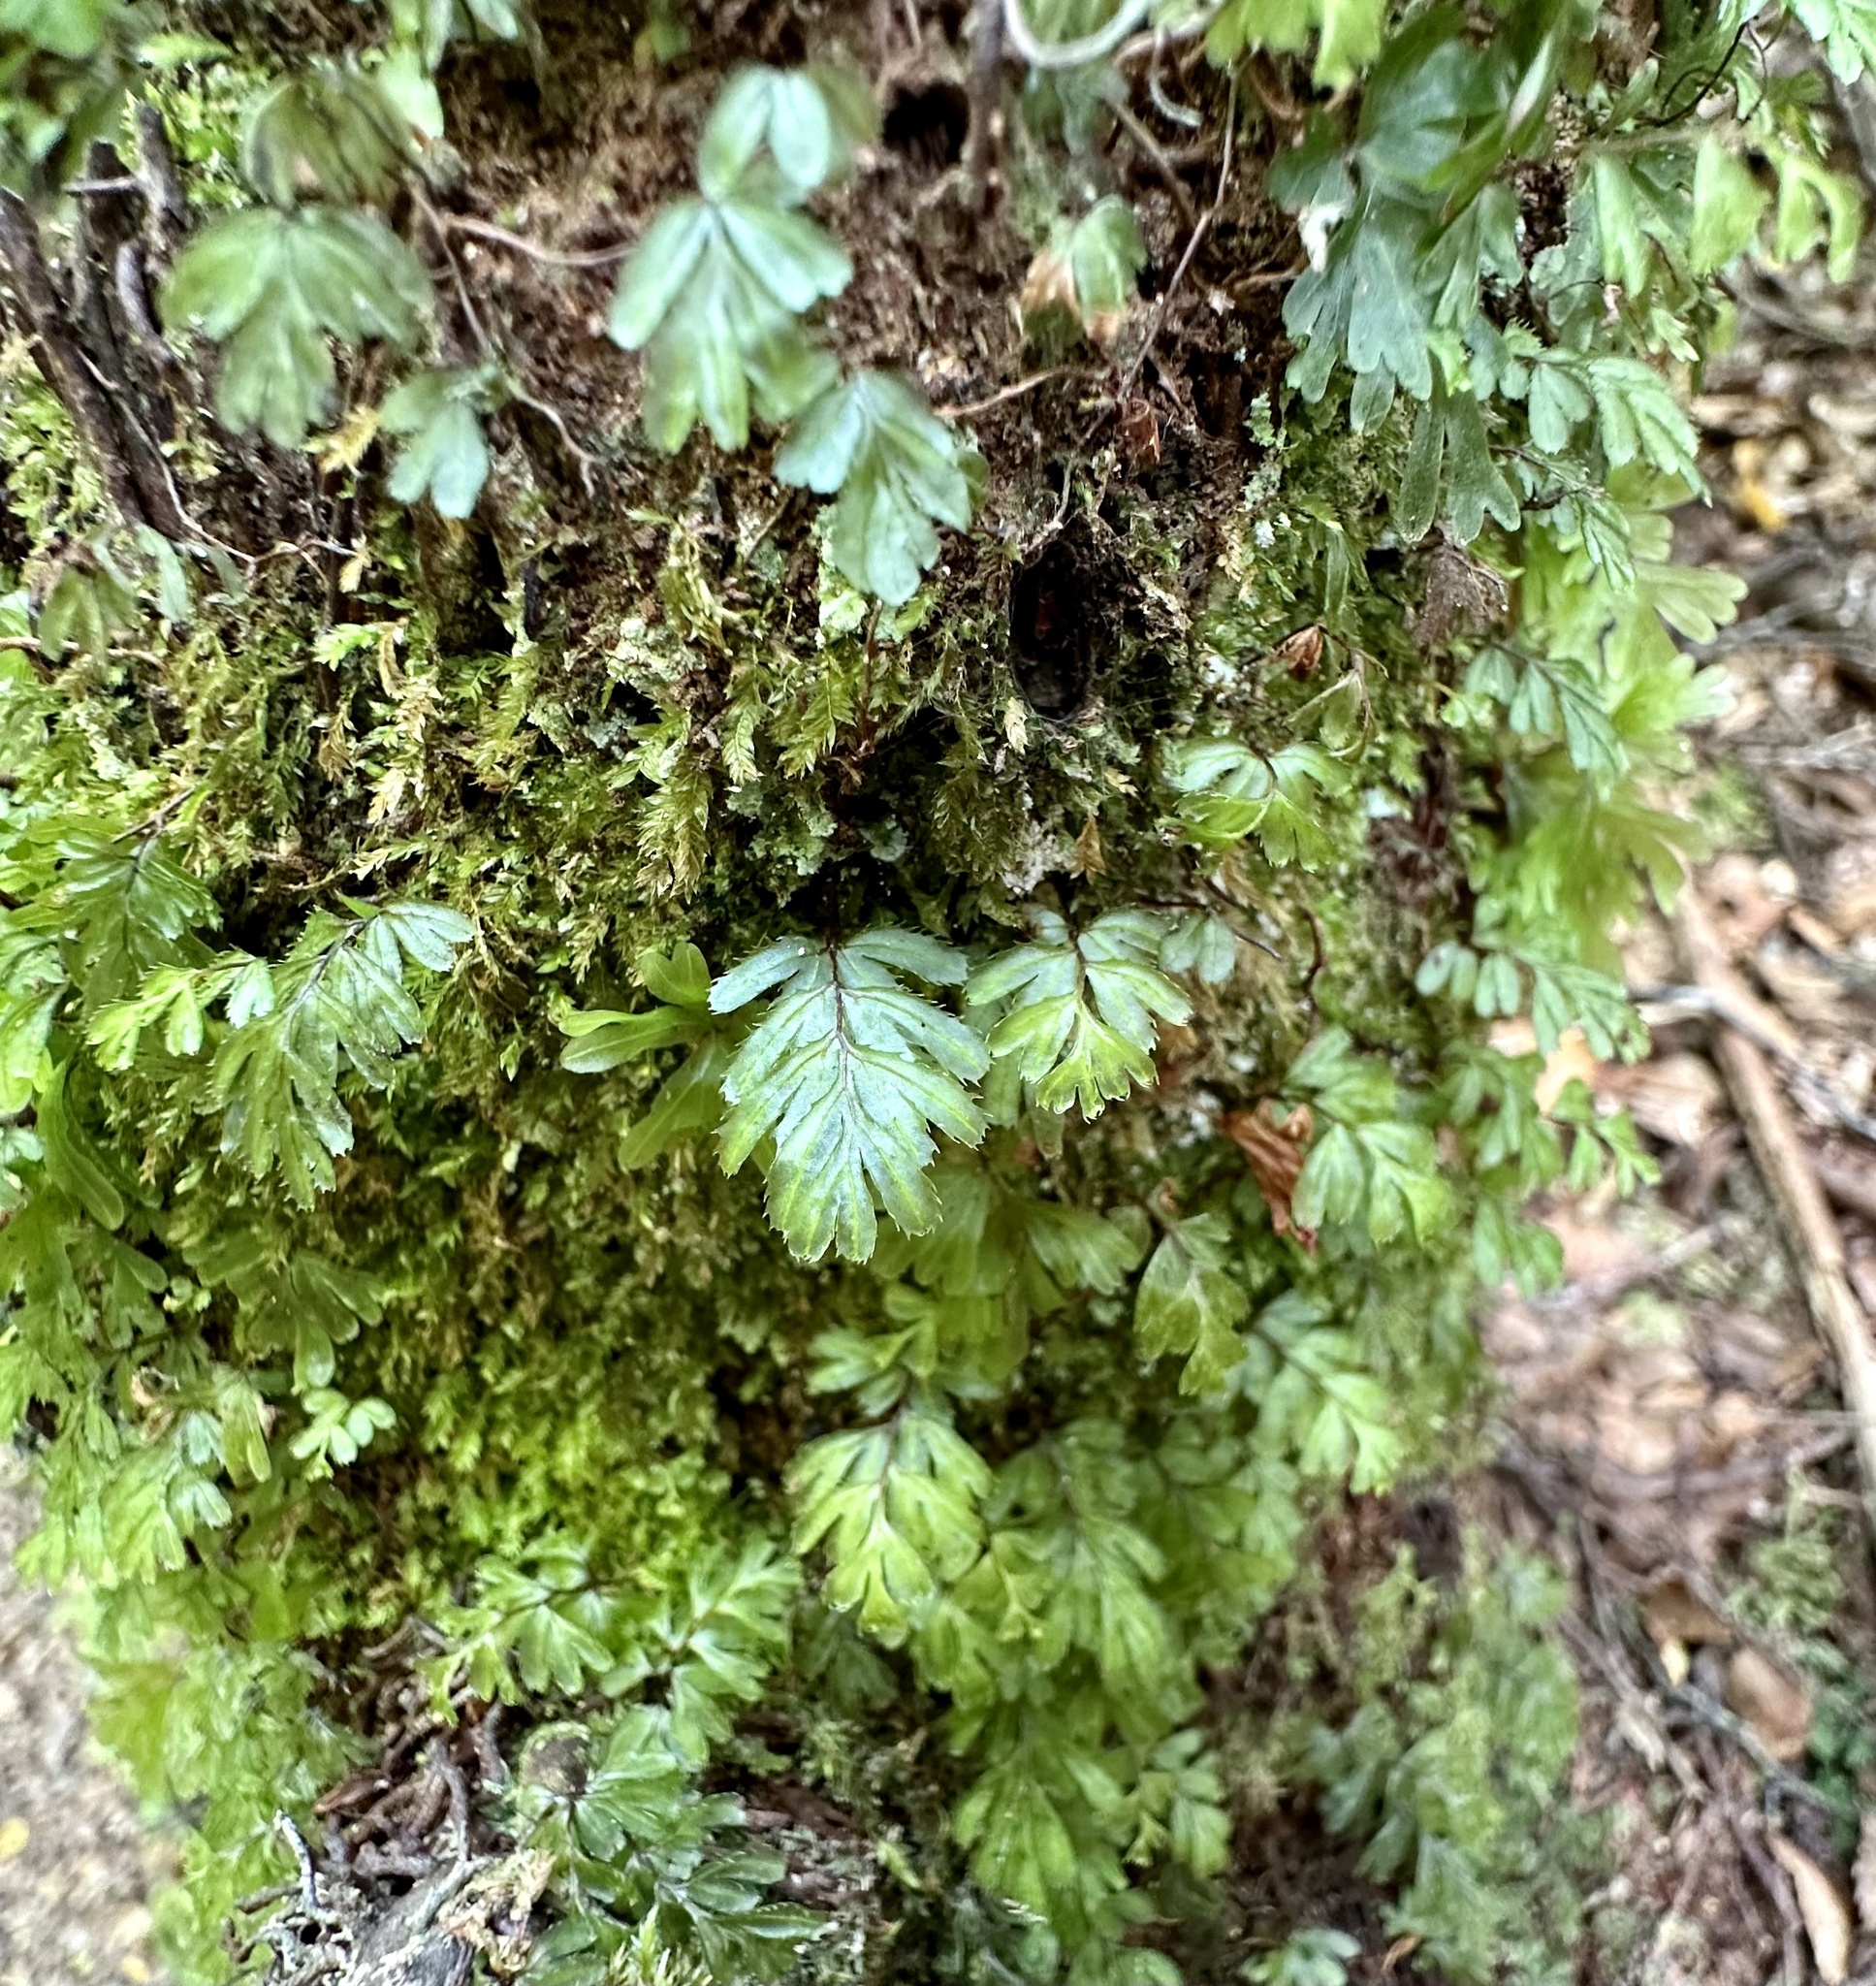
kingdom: Plantae
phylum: Tracheophyta
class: Polypodiopsida
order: Hymenophyllales
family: Hymenophyllaceae
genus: Hymenophyllum
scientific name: Hymenophyllum revolutum
